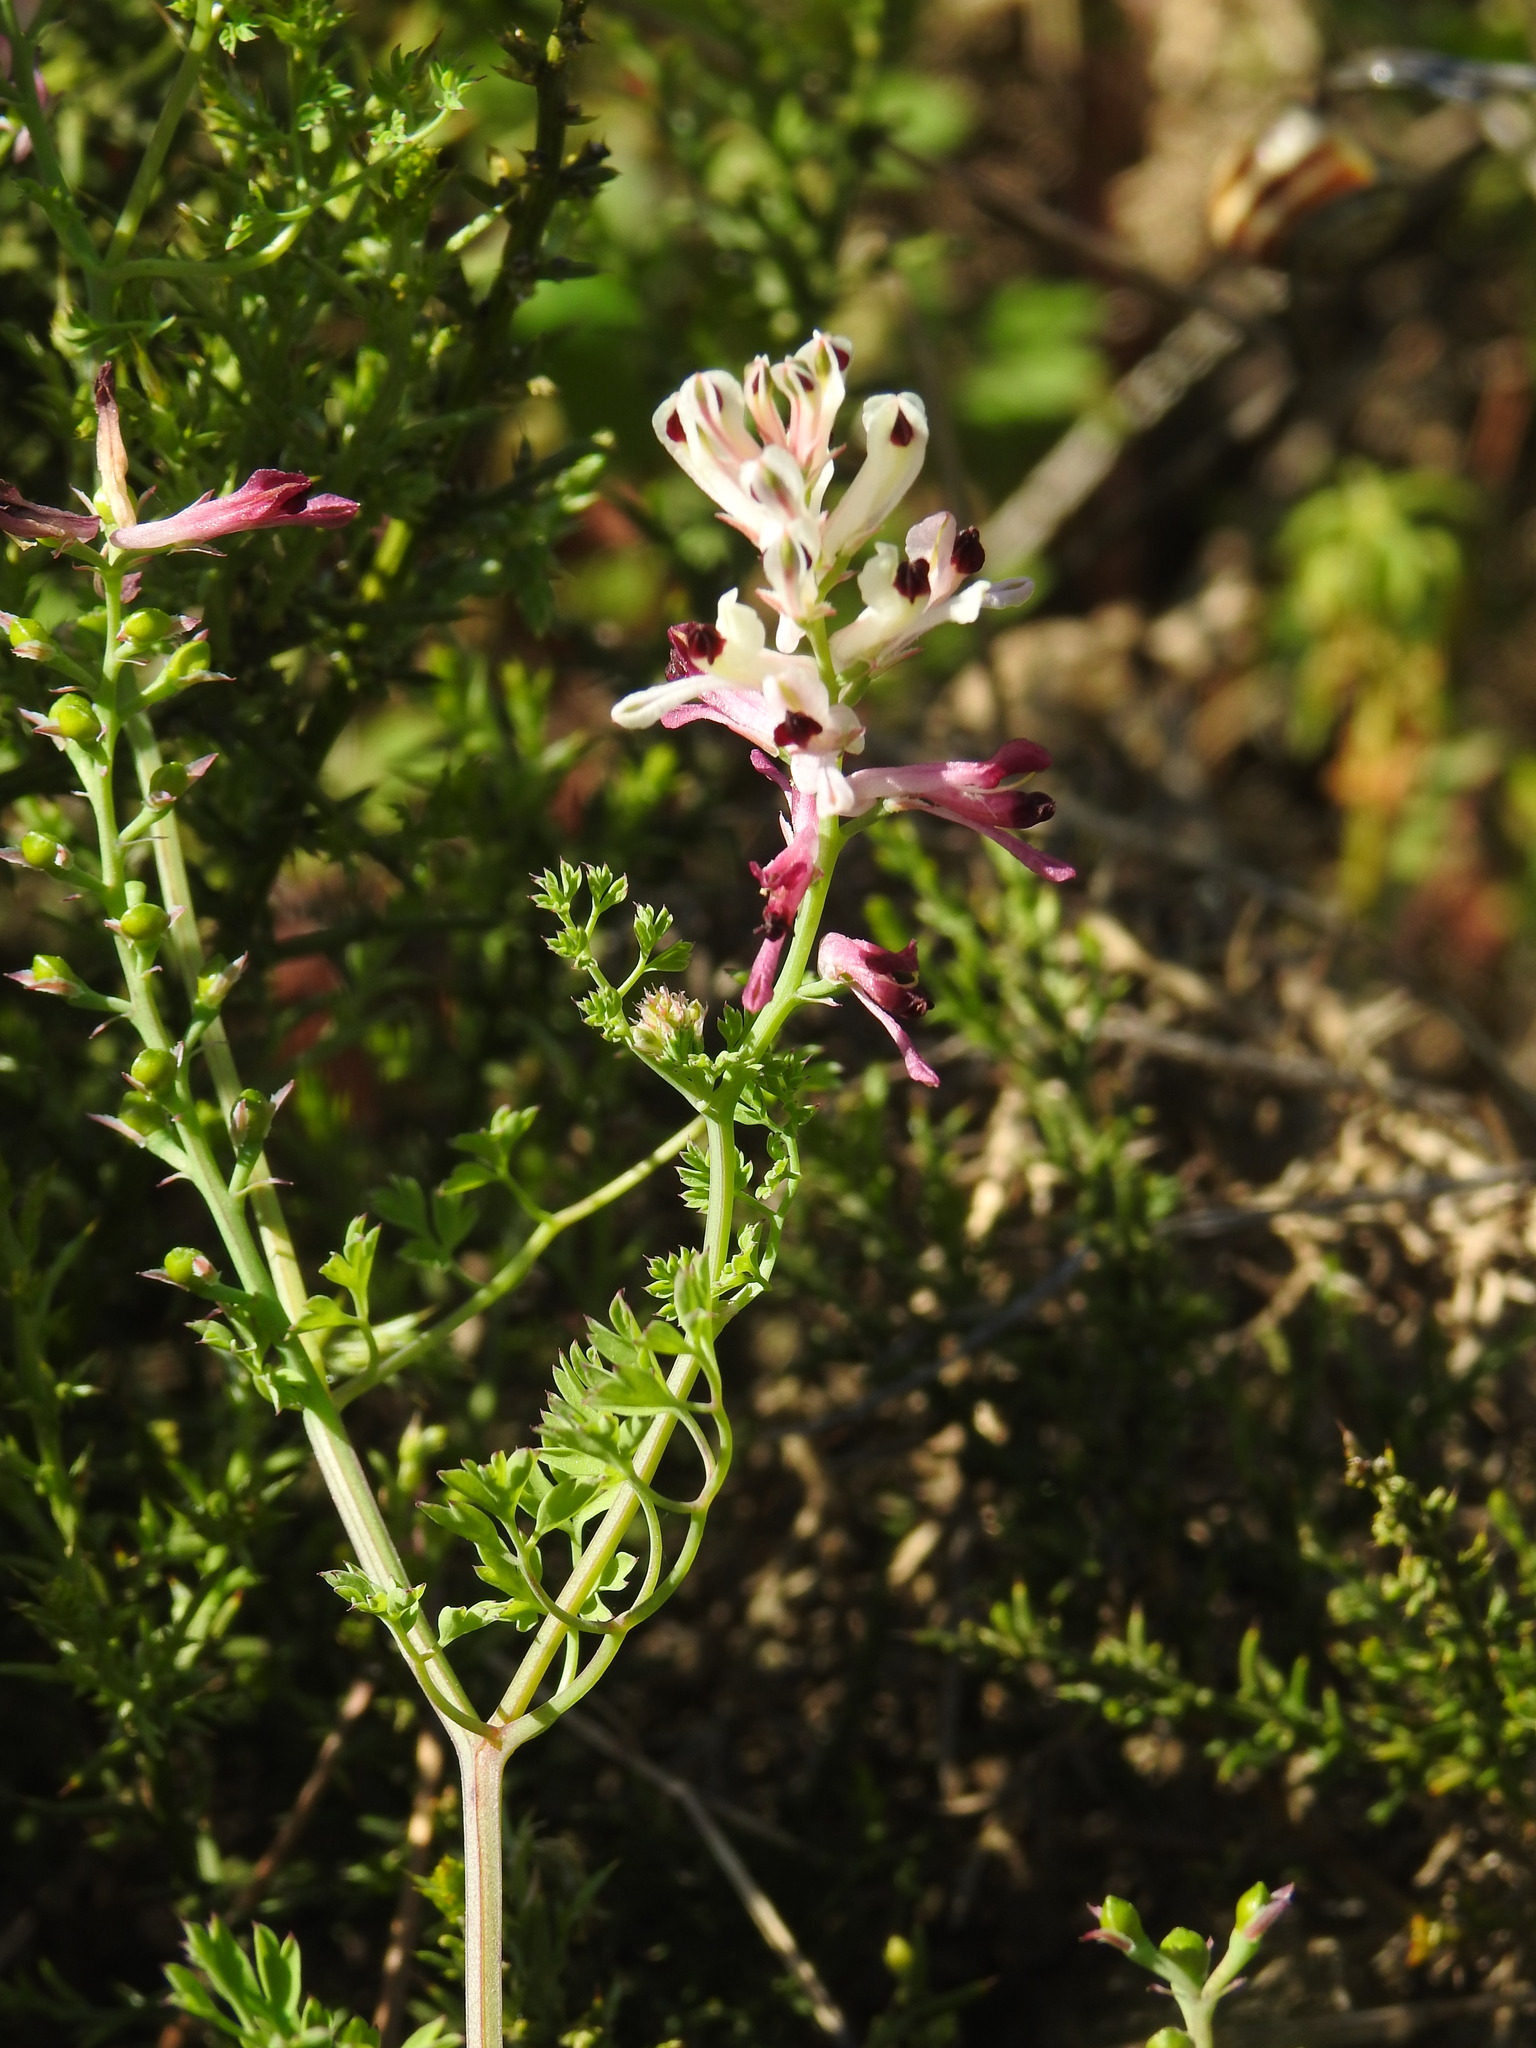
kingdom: Plantae
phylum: Tracheophyta
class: Magnoliopsida
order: Ranunculales
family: Papaveraceae
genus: Fumaria
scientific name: Fumaria agraria
